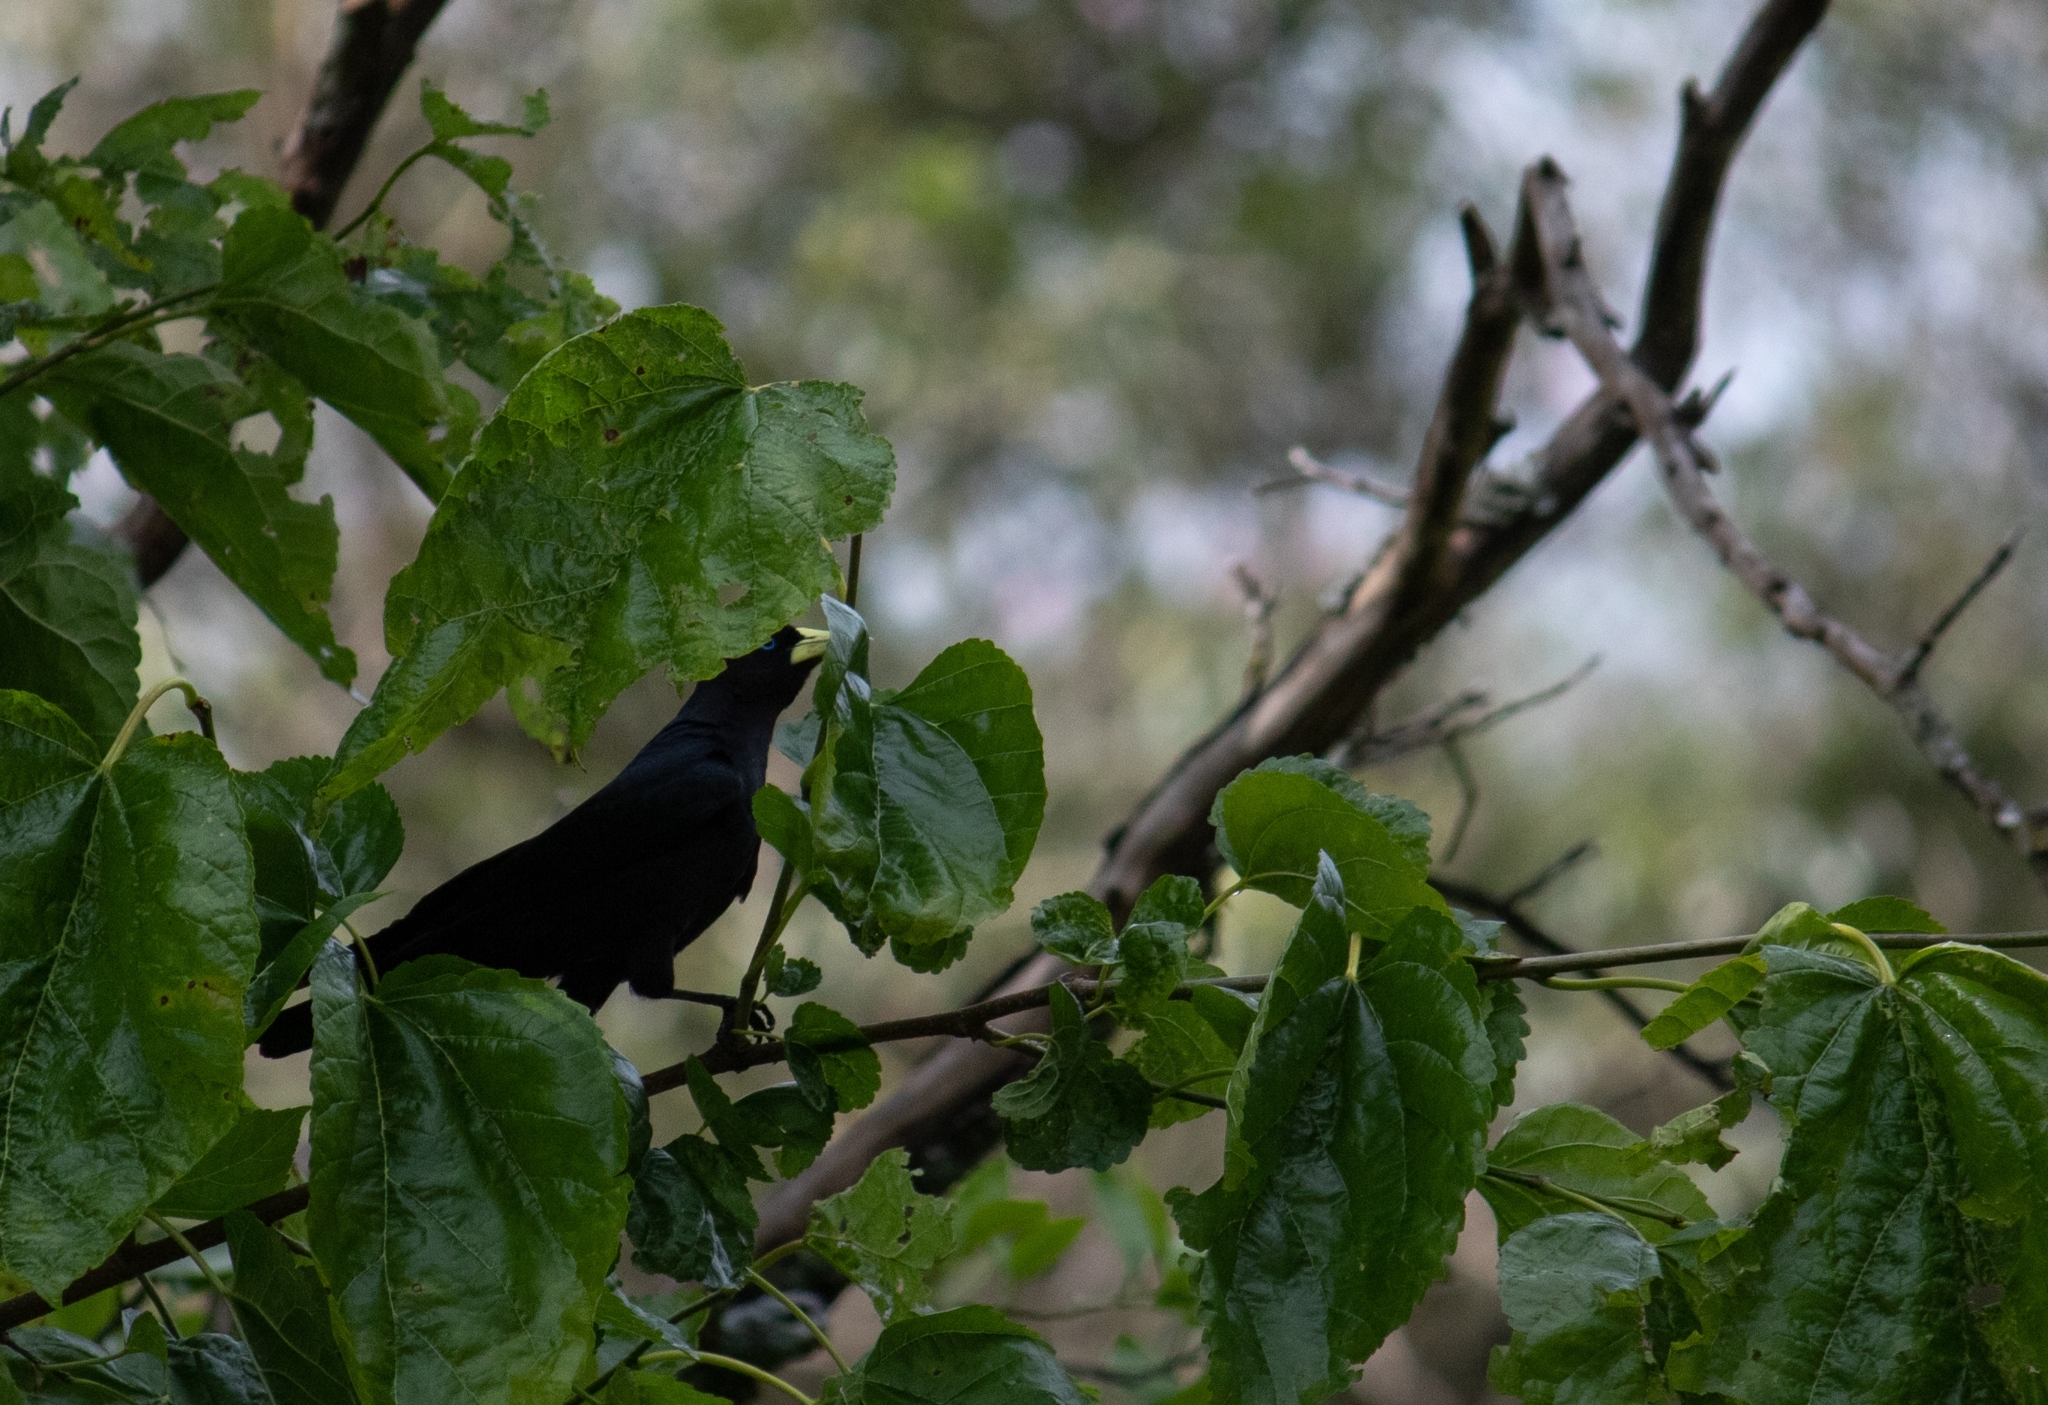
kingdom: Animalia
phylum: Chordata
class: Aves
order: Passeriformes
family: Icteridae
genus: Cacicus
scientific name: Cacicus haemorrhous
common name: Red-rumped cacique
